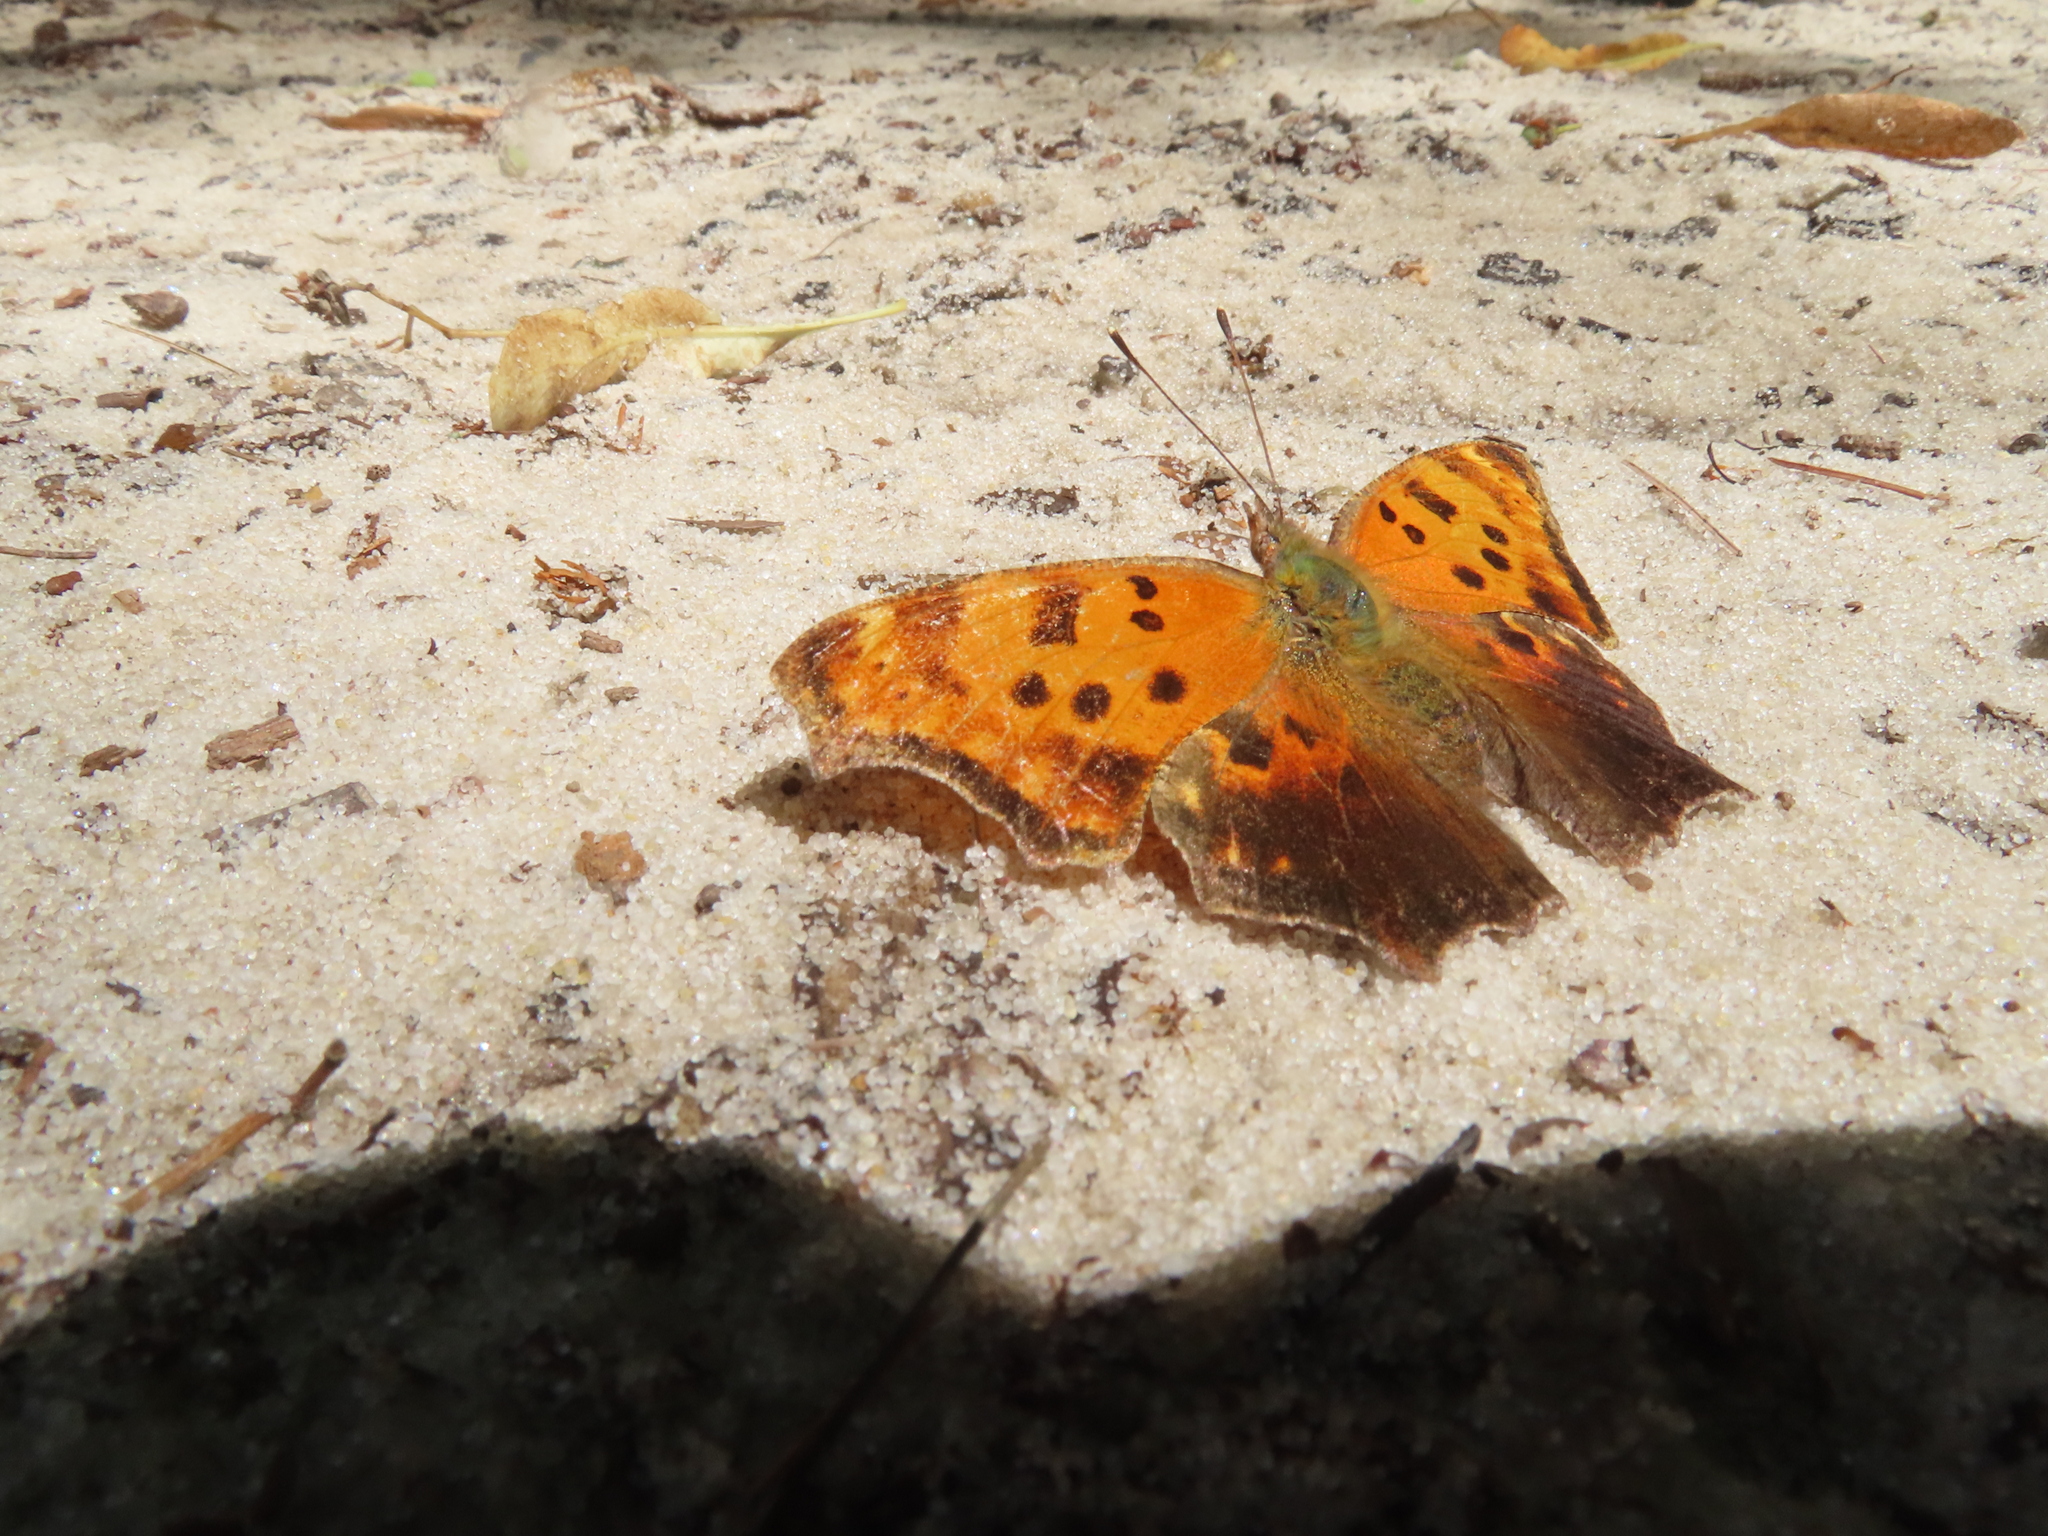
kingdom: Animalia
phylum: Arthropoda
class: Insecta
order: Lepidoptera
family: Nymphalidae
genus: Polygonia
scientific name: Polygonia comma
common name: Eastern comma
